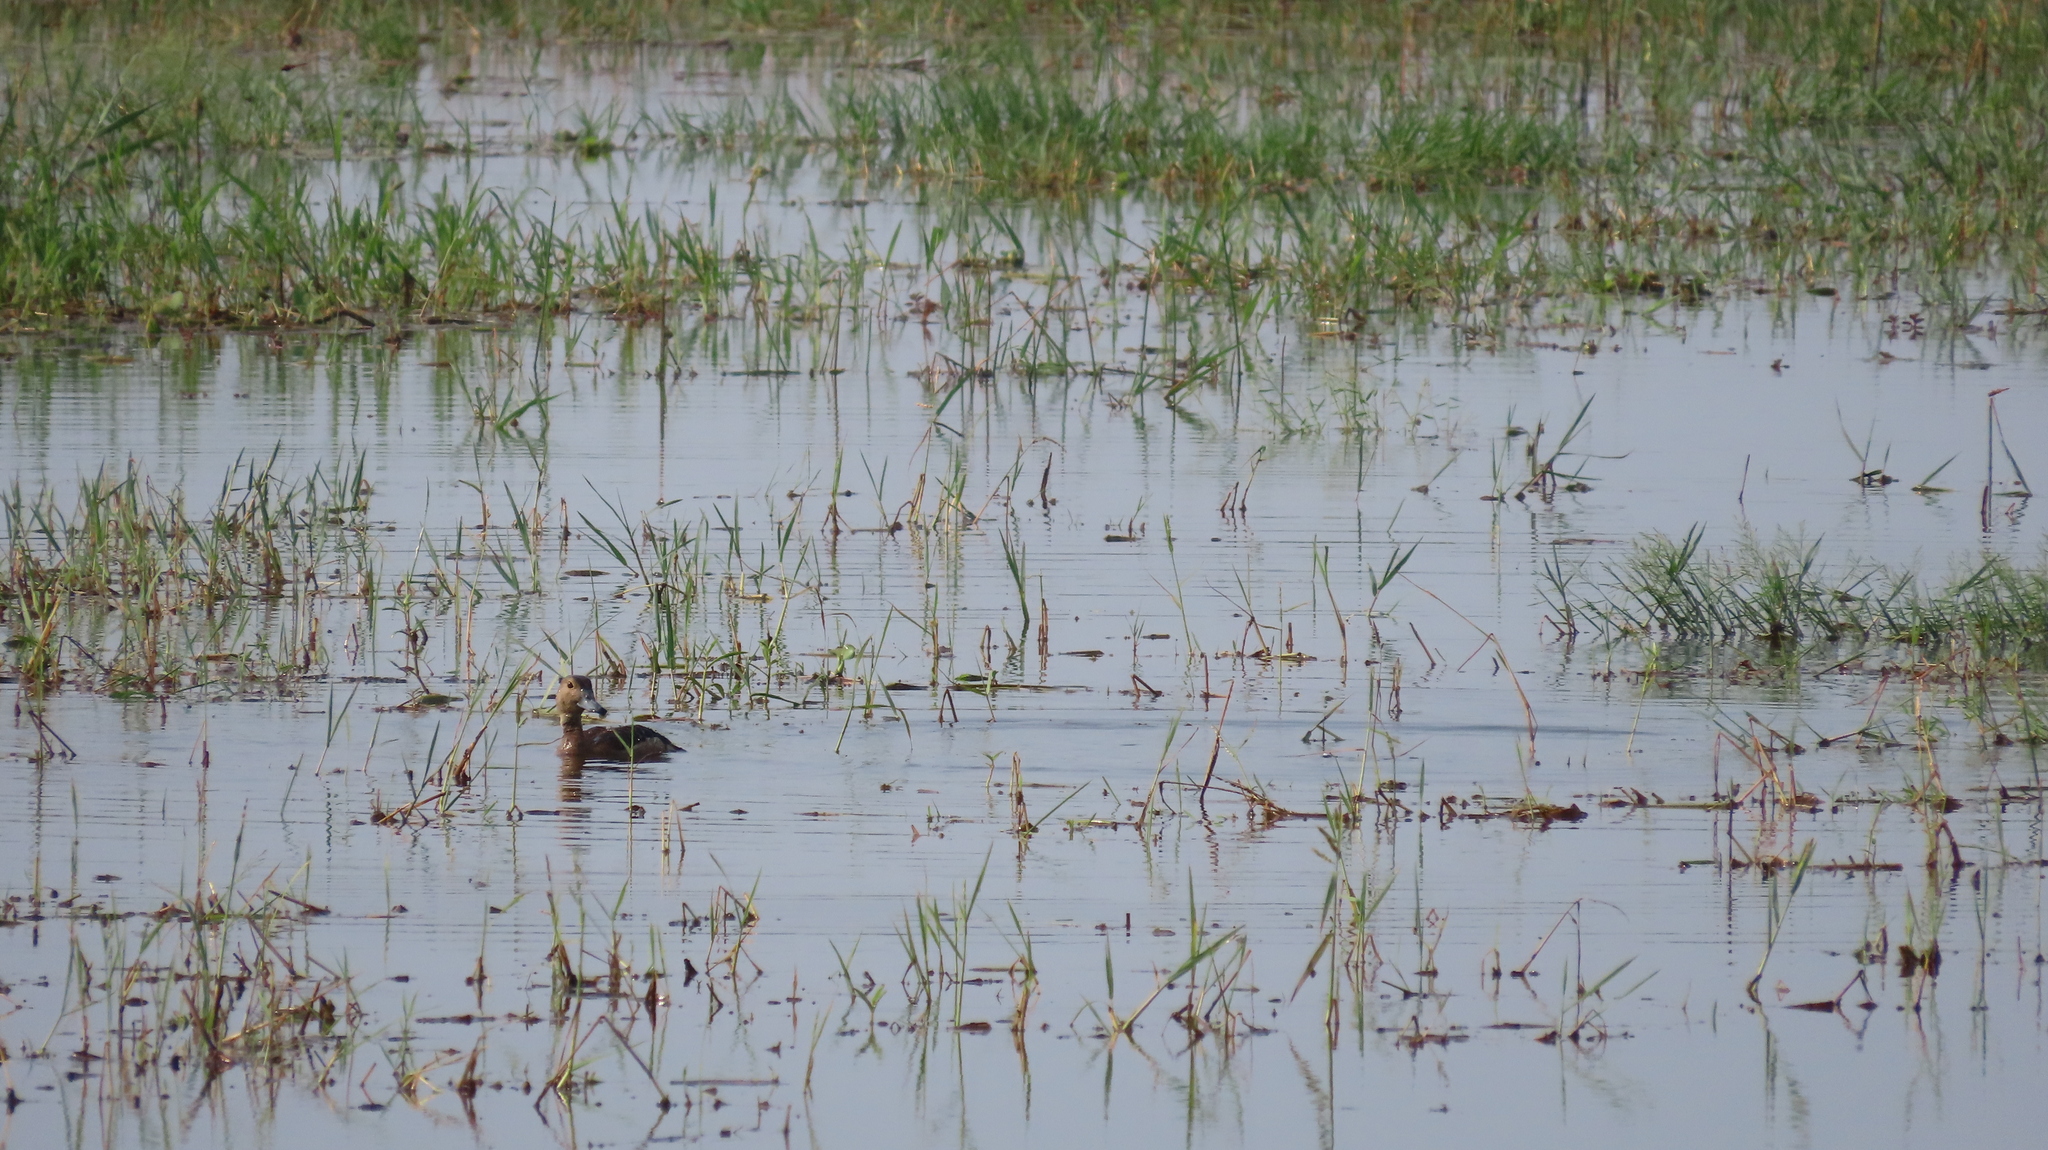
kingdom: Animalia
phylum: Chordata
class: Aves
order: Anseriformes
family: Anatidae
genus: Dendrocygna
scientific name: Dendrocygna javanica
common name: Lesser whistling-duck
